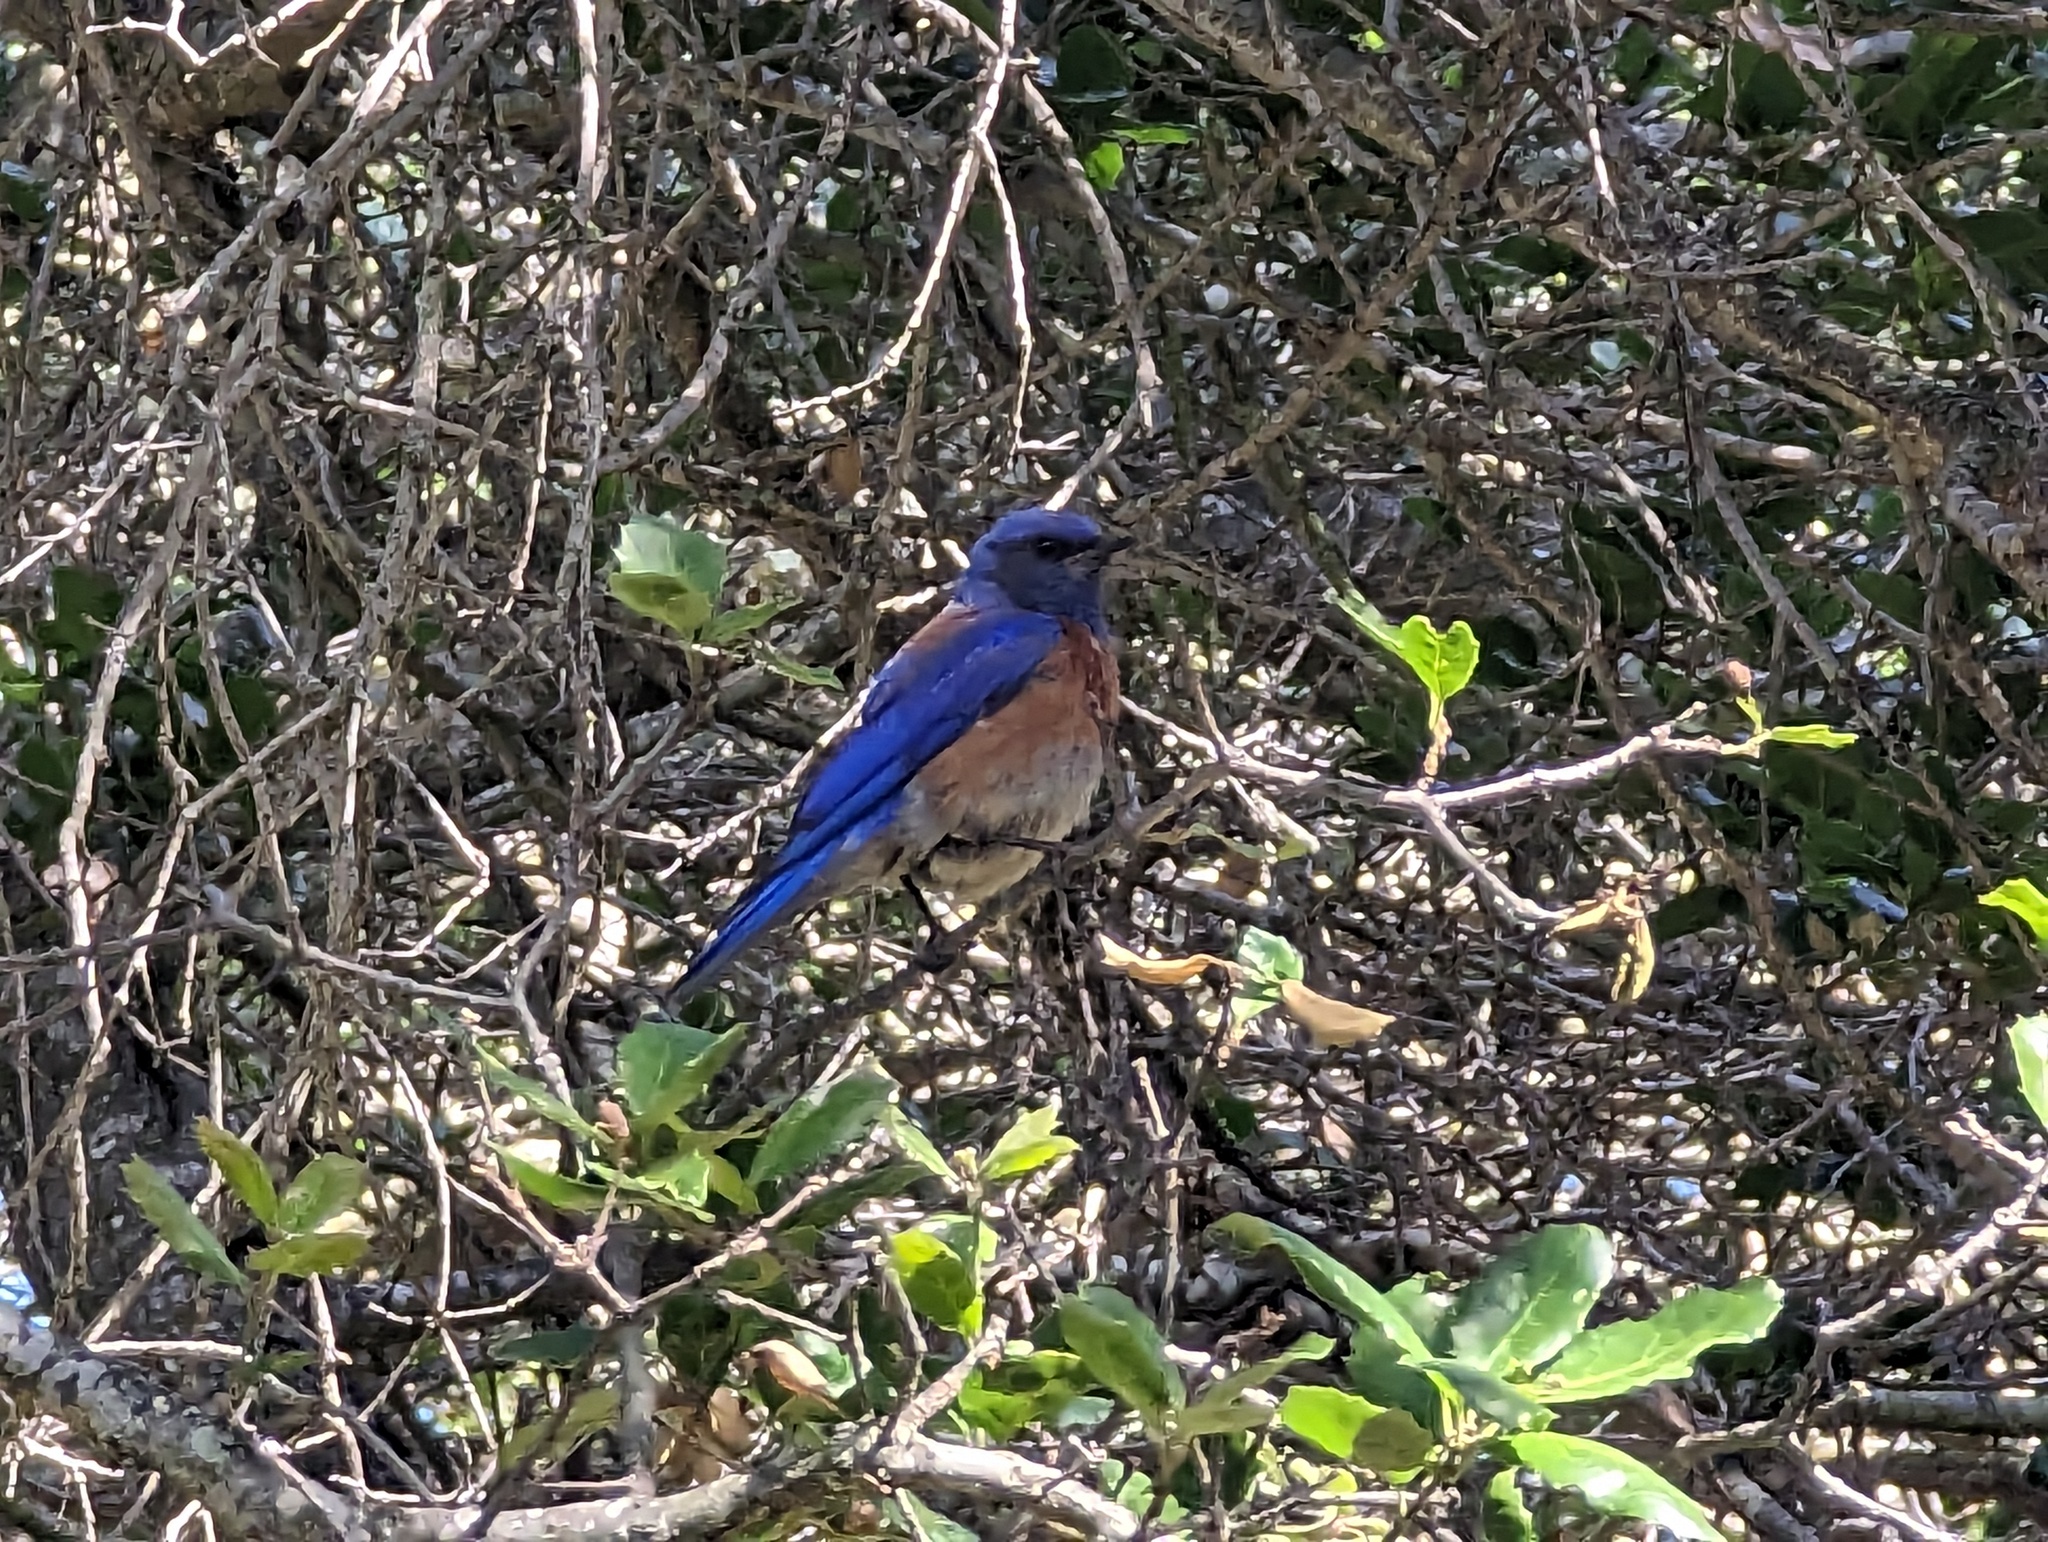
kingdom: Animalia
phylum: Chordata
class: Aves
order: Passeriformes
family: Turdidae
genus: Sialia
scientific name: Sialia mexicana
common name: Western bluebird
